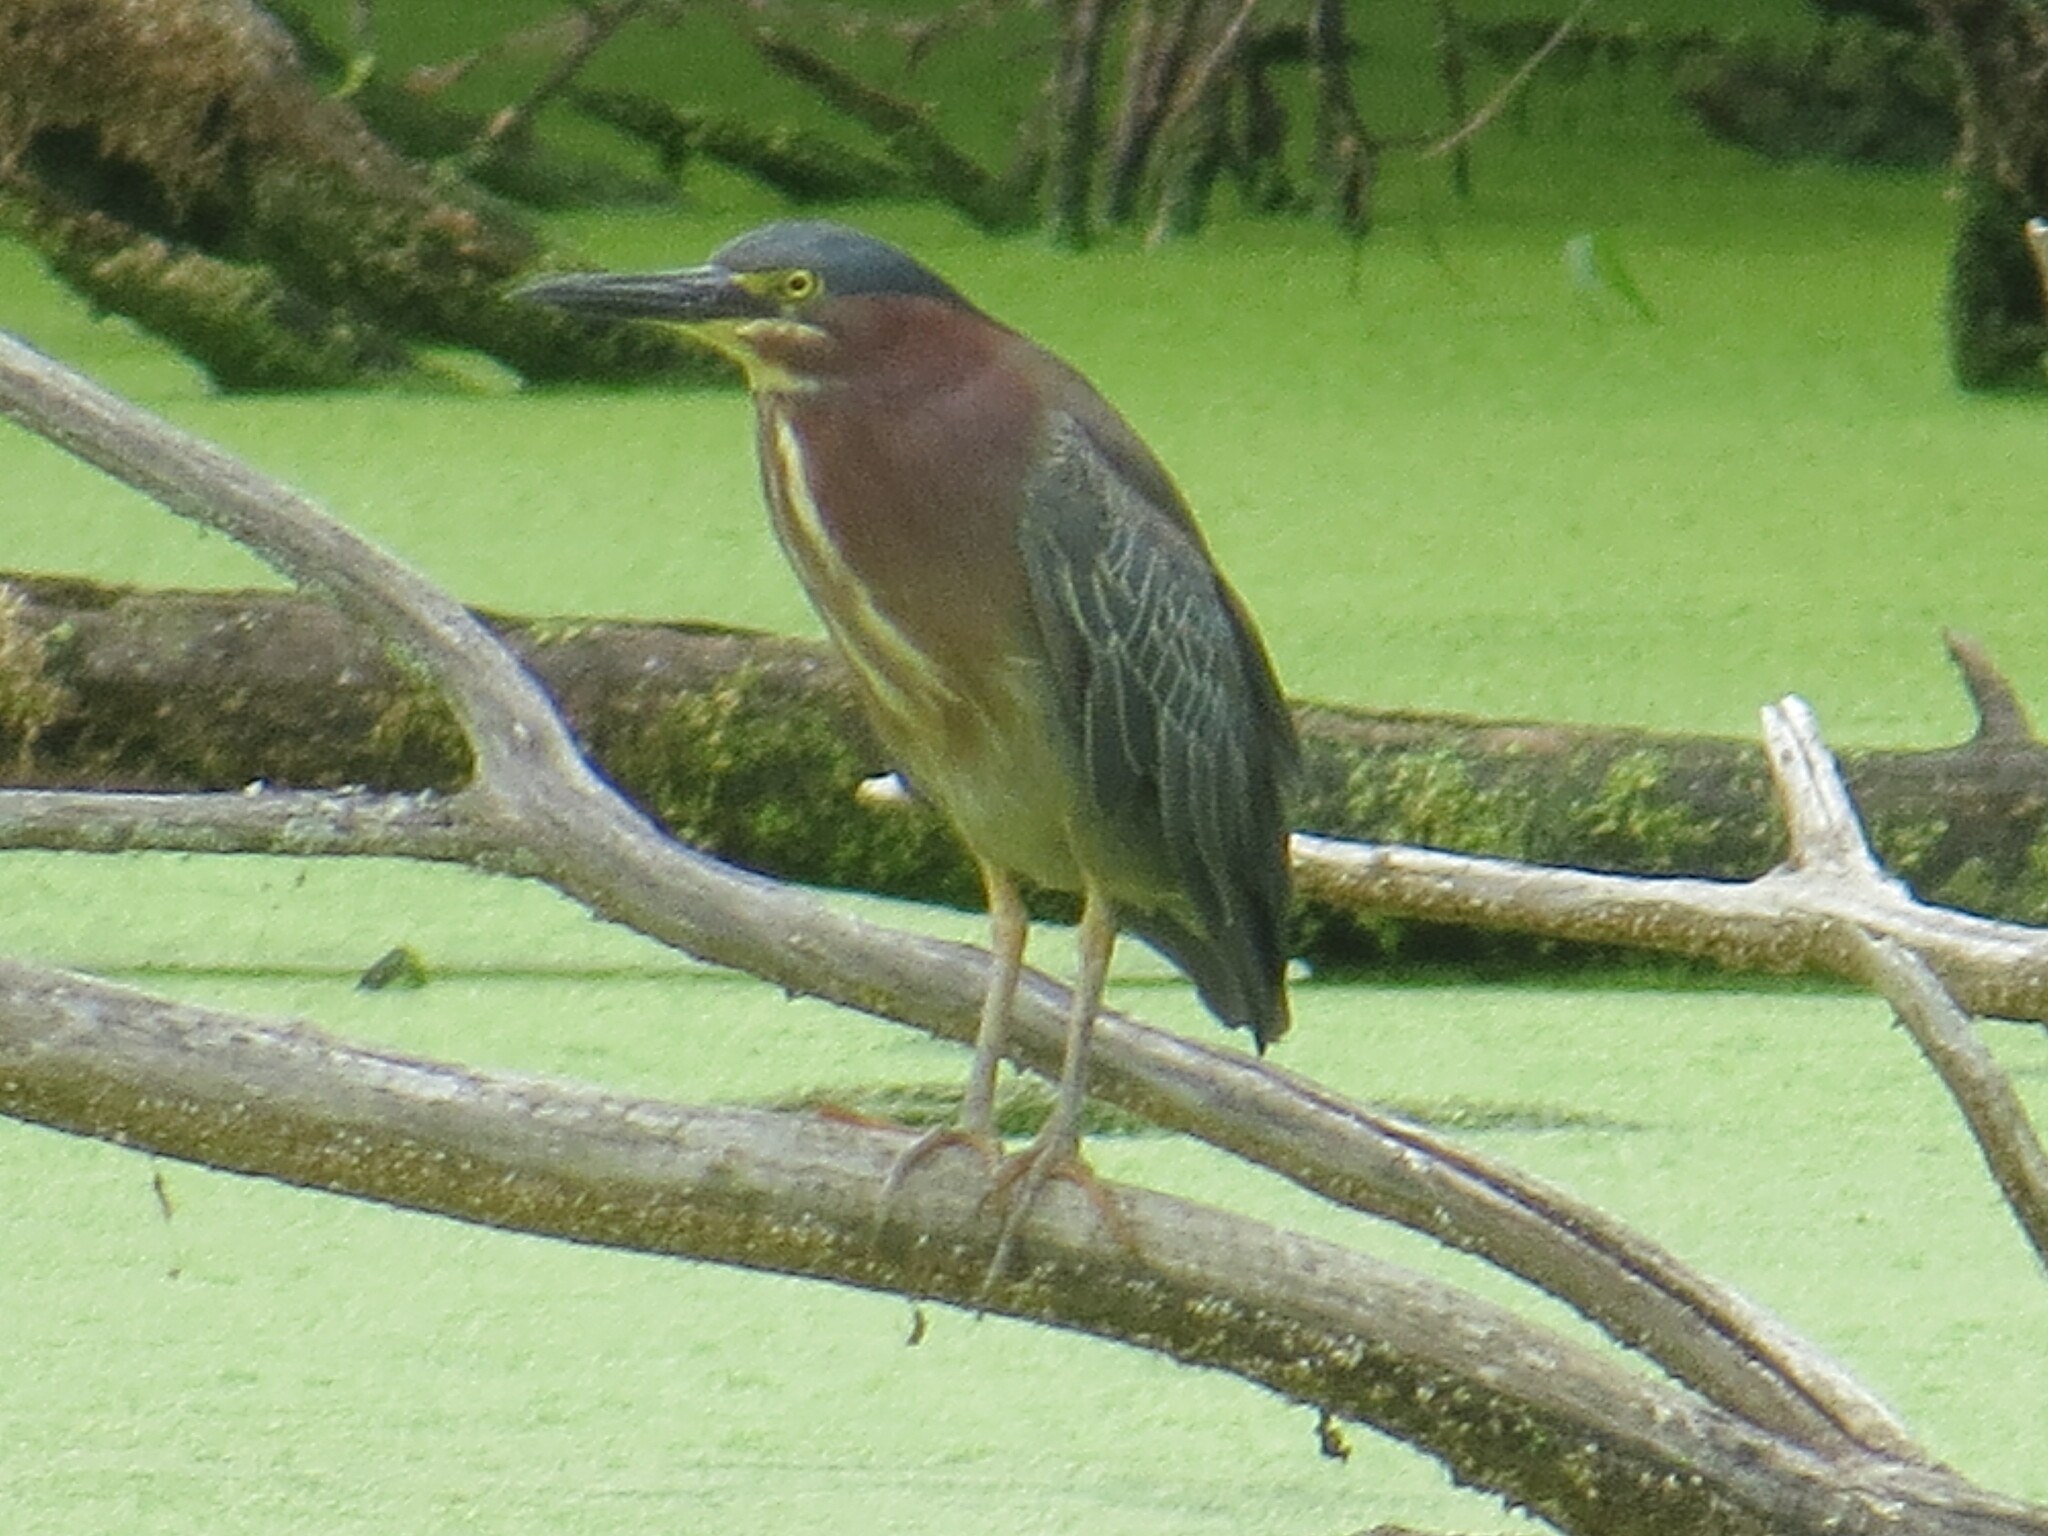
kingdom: Animalia
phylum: Chordata
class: Aves
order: Pelecaniformes
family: Ardeidae
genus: Butorides
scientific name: Butorides virescens
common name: Green heron
